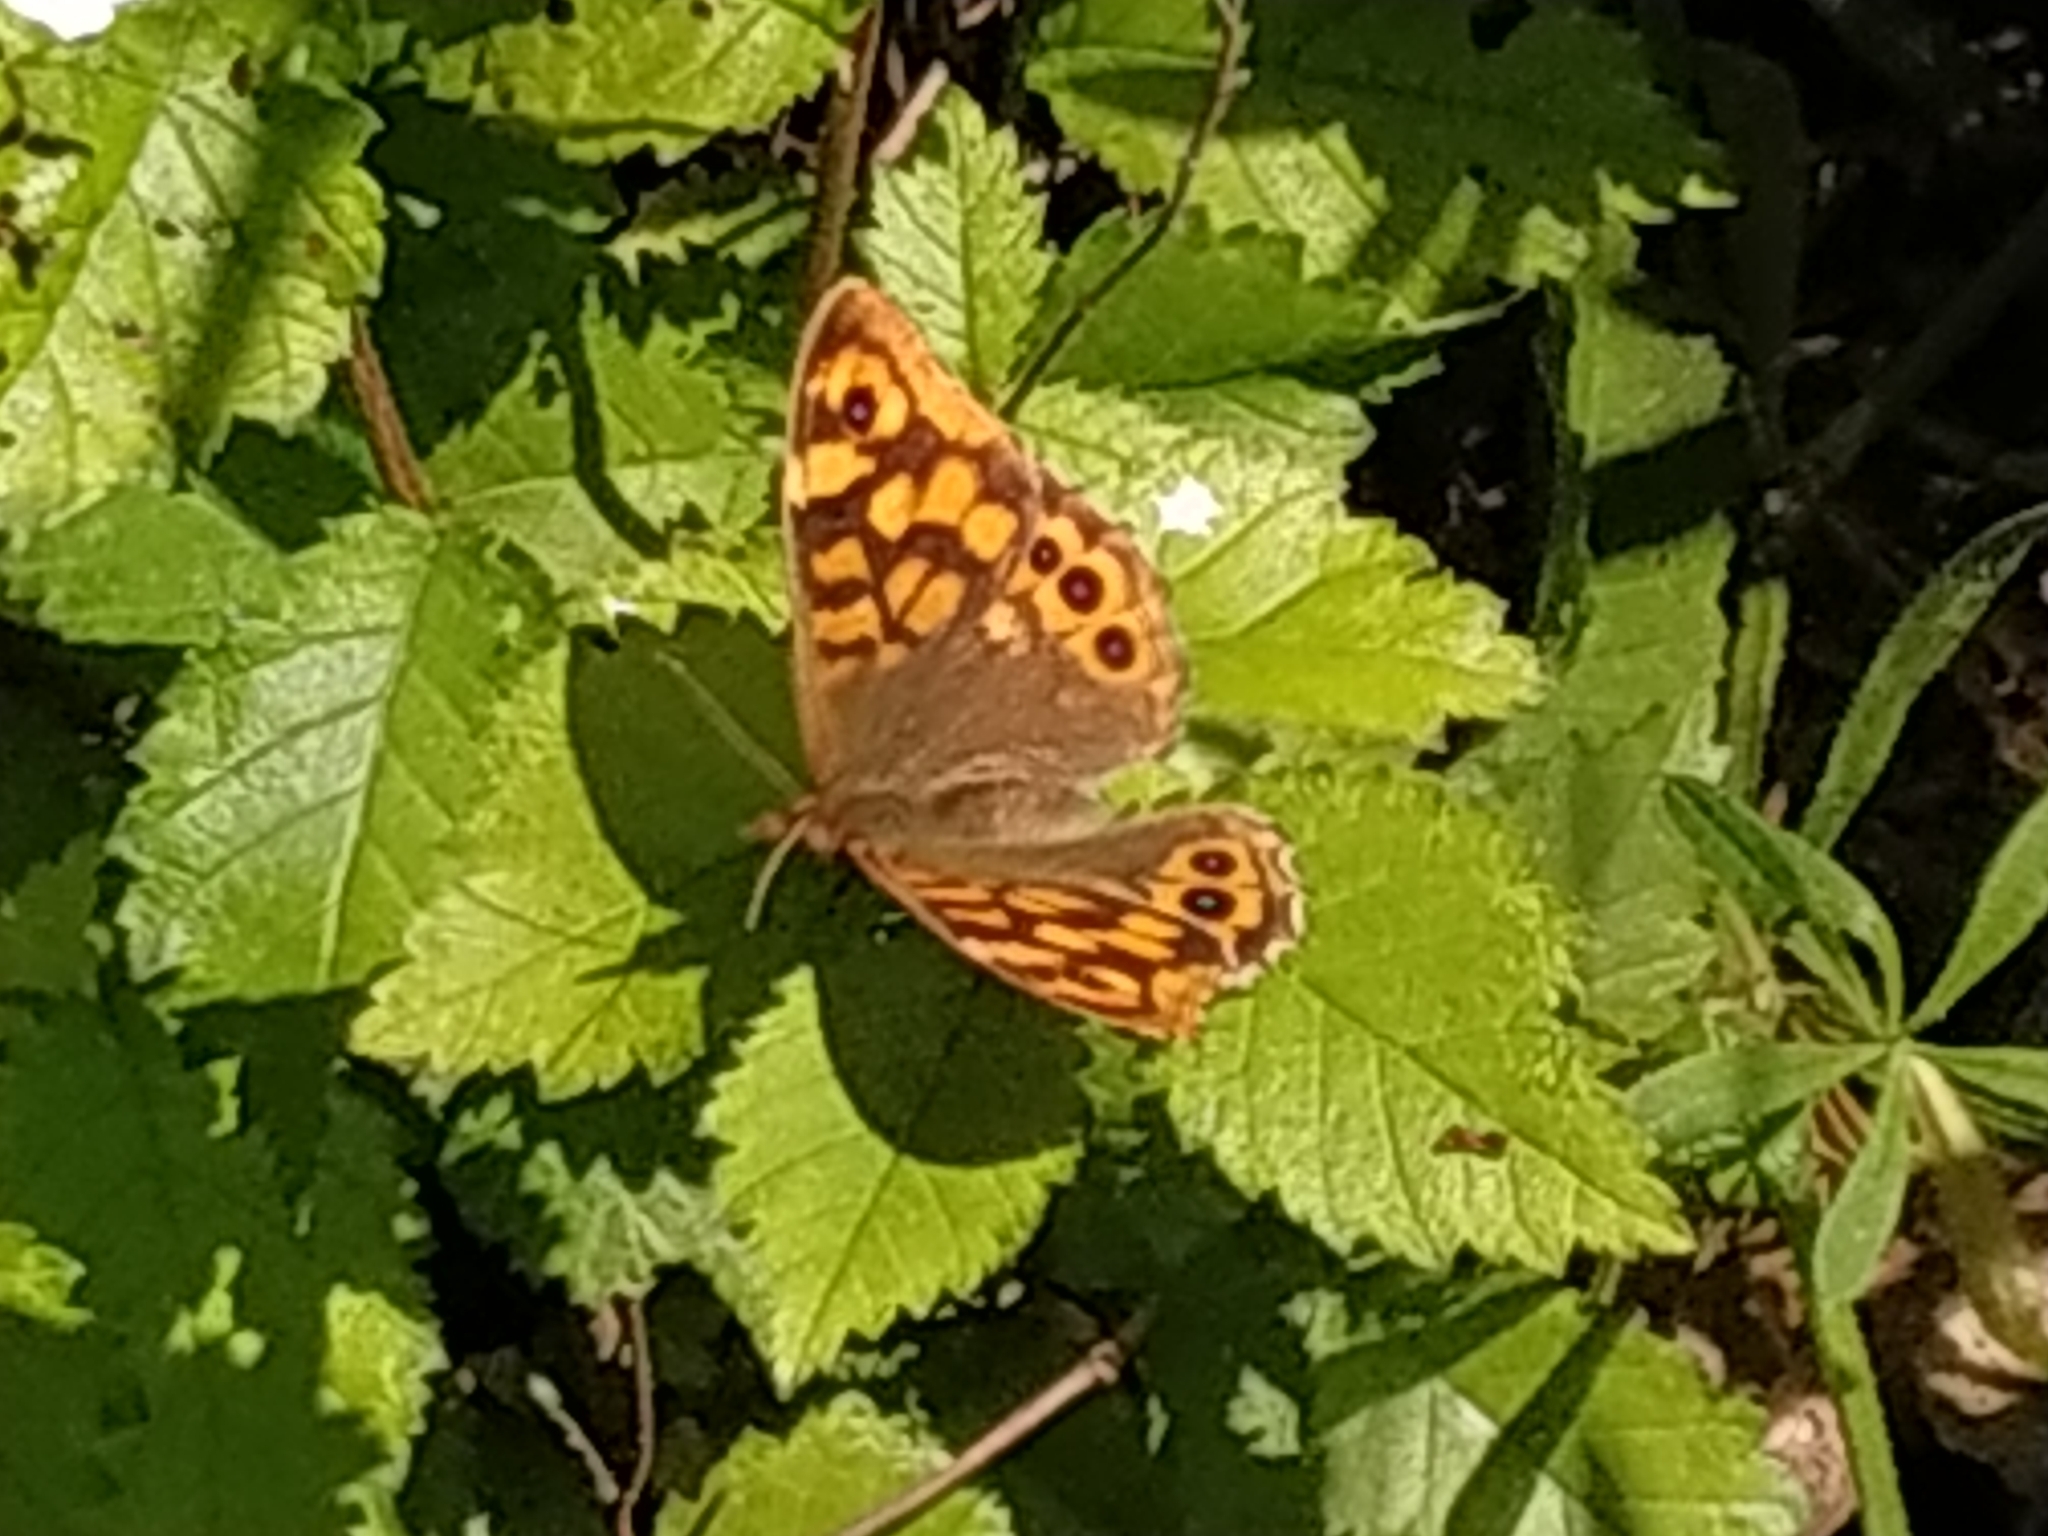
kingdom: Animalia
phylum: Arthropoda
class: Insecta
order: Lepidoptera
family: Nymphalidae
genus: Pararge
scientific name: Pararge aegeria
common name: Speckled wood
